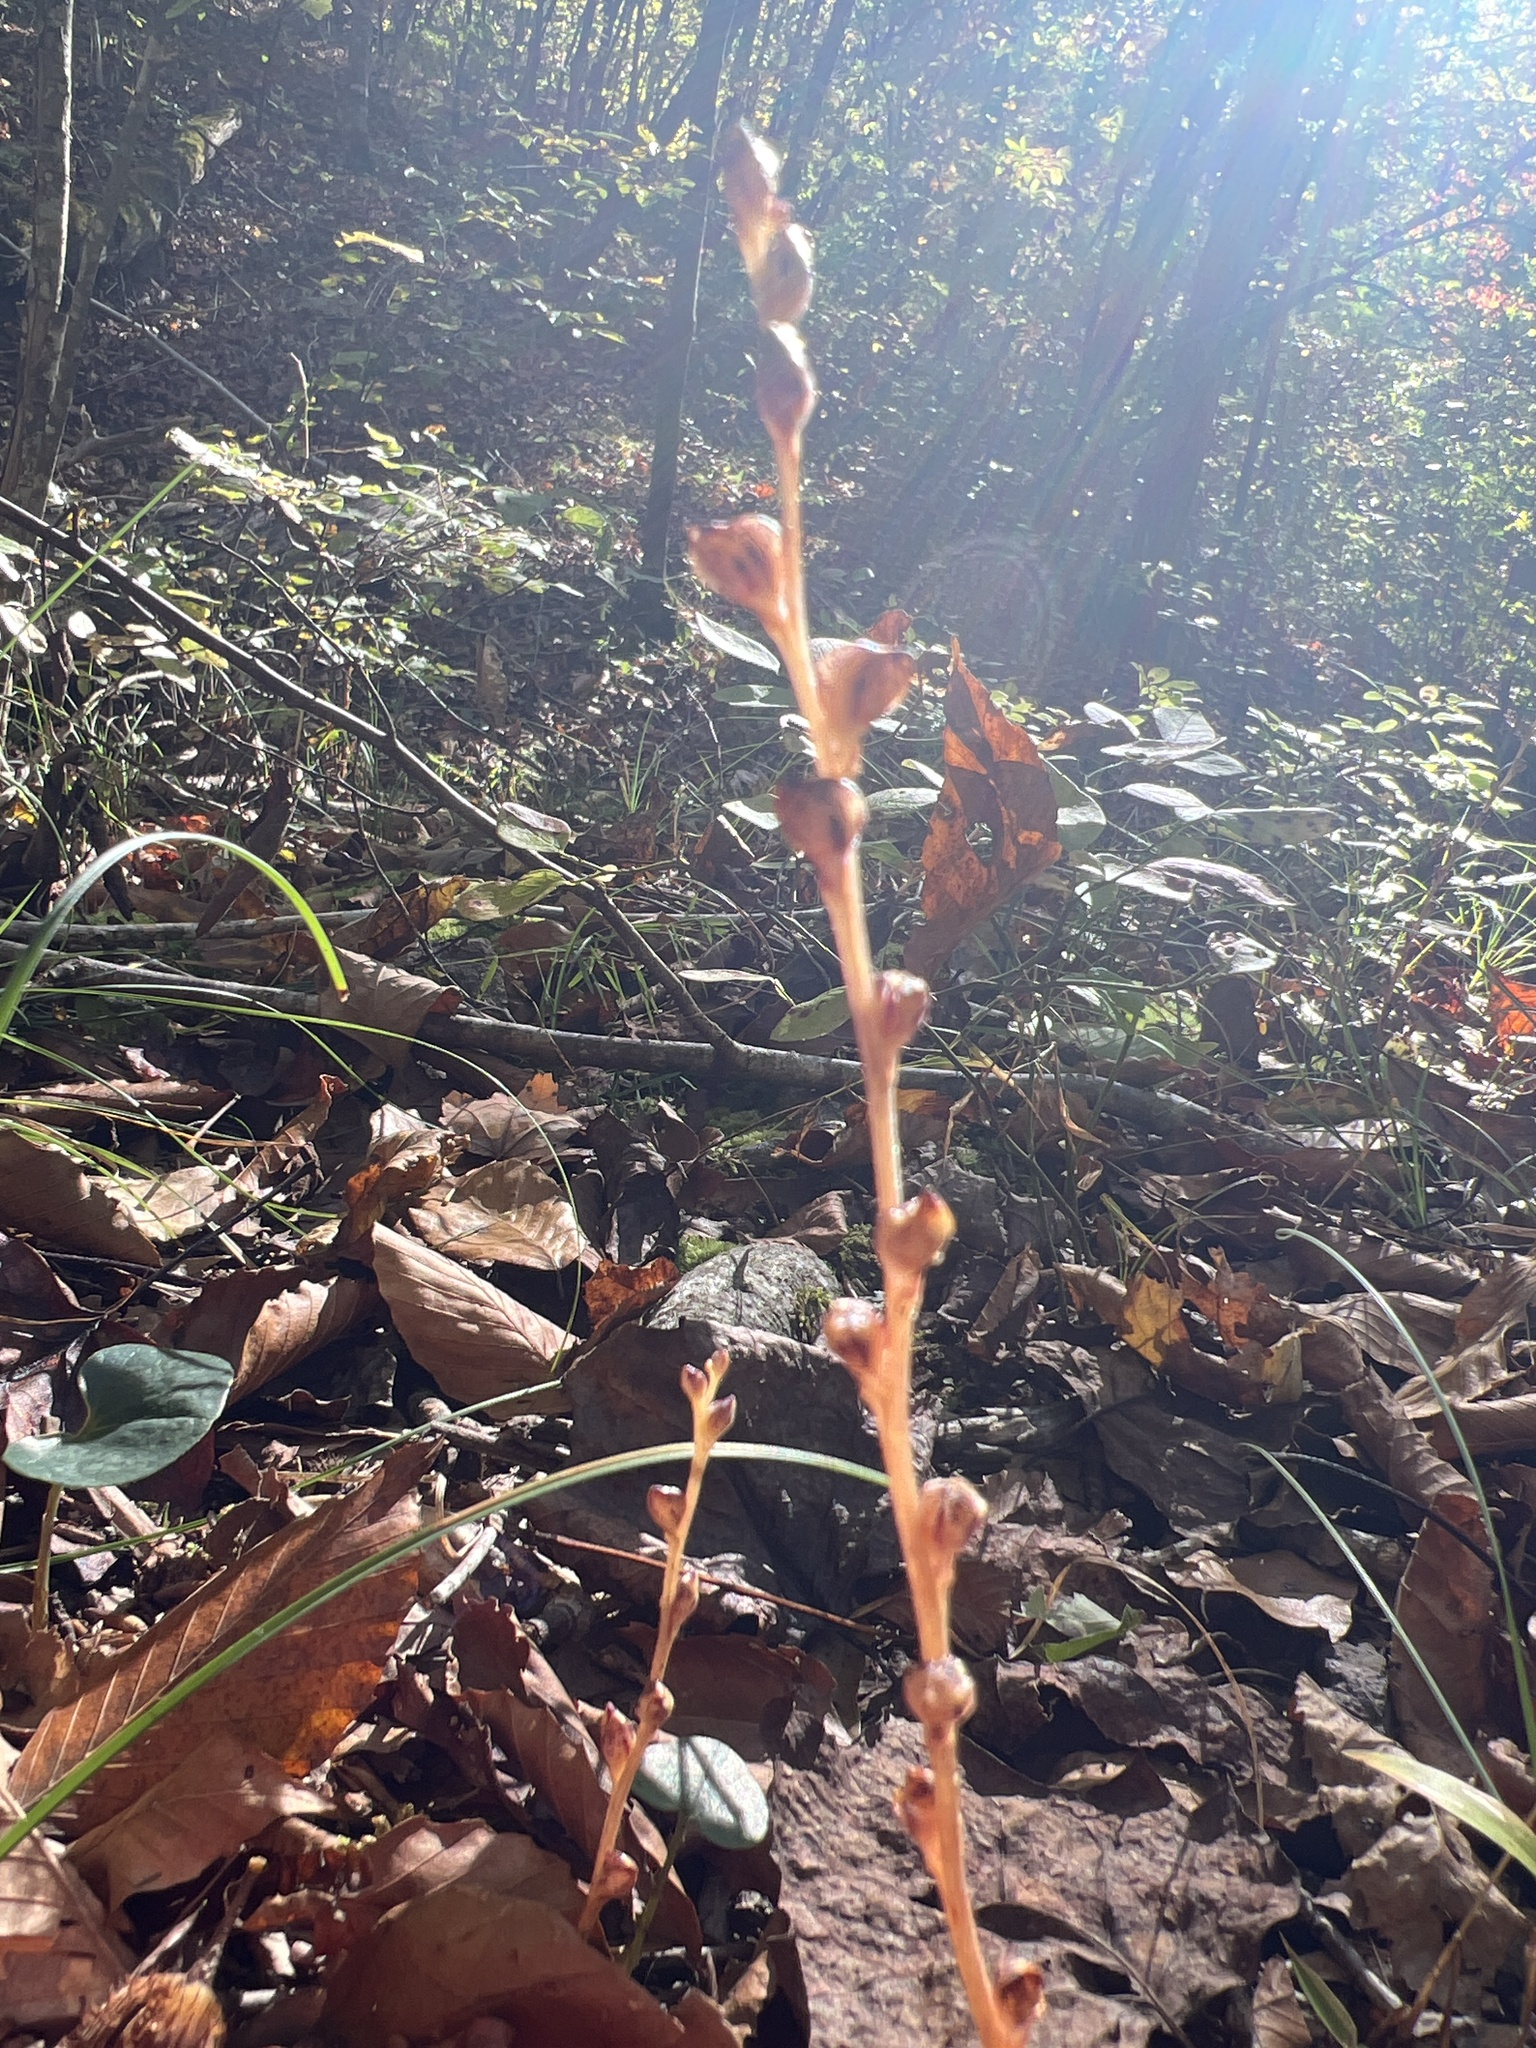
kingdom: Plantae
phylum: Tracheophyta
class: Magnoliopsida
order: Lamiales
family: Orobanchaceae
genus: Epifagus
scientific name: Epifagus virginiana
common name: Beechdrops
